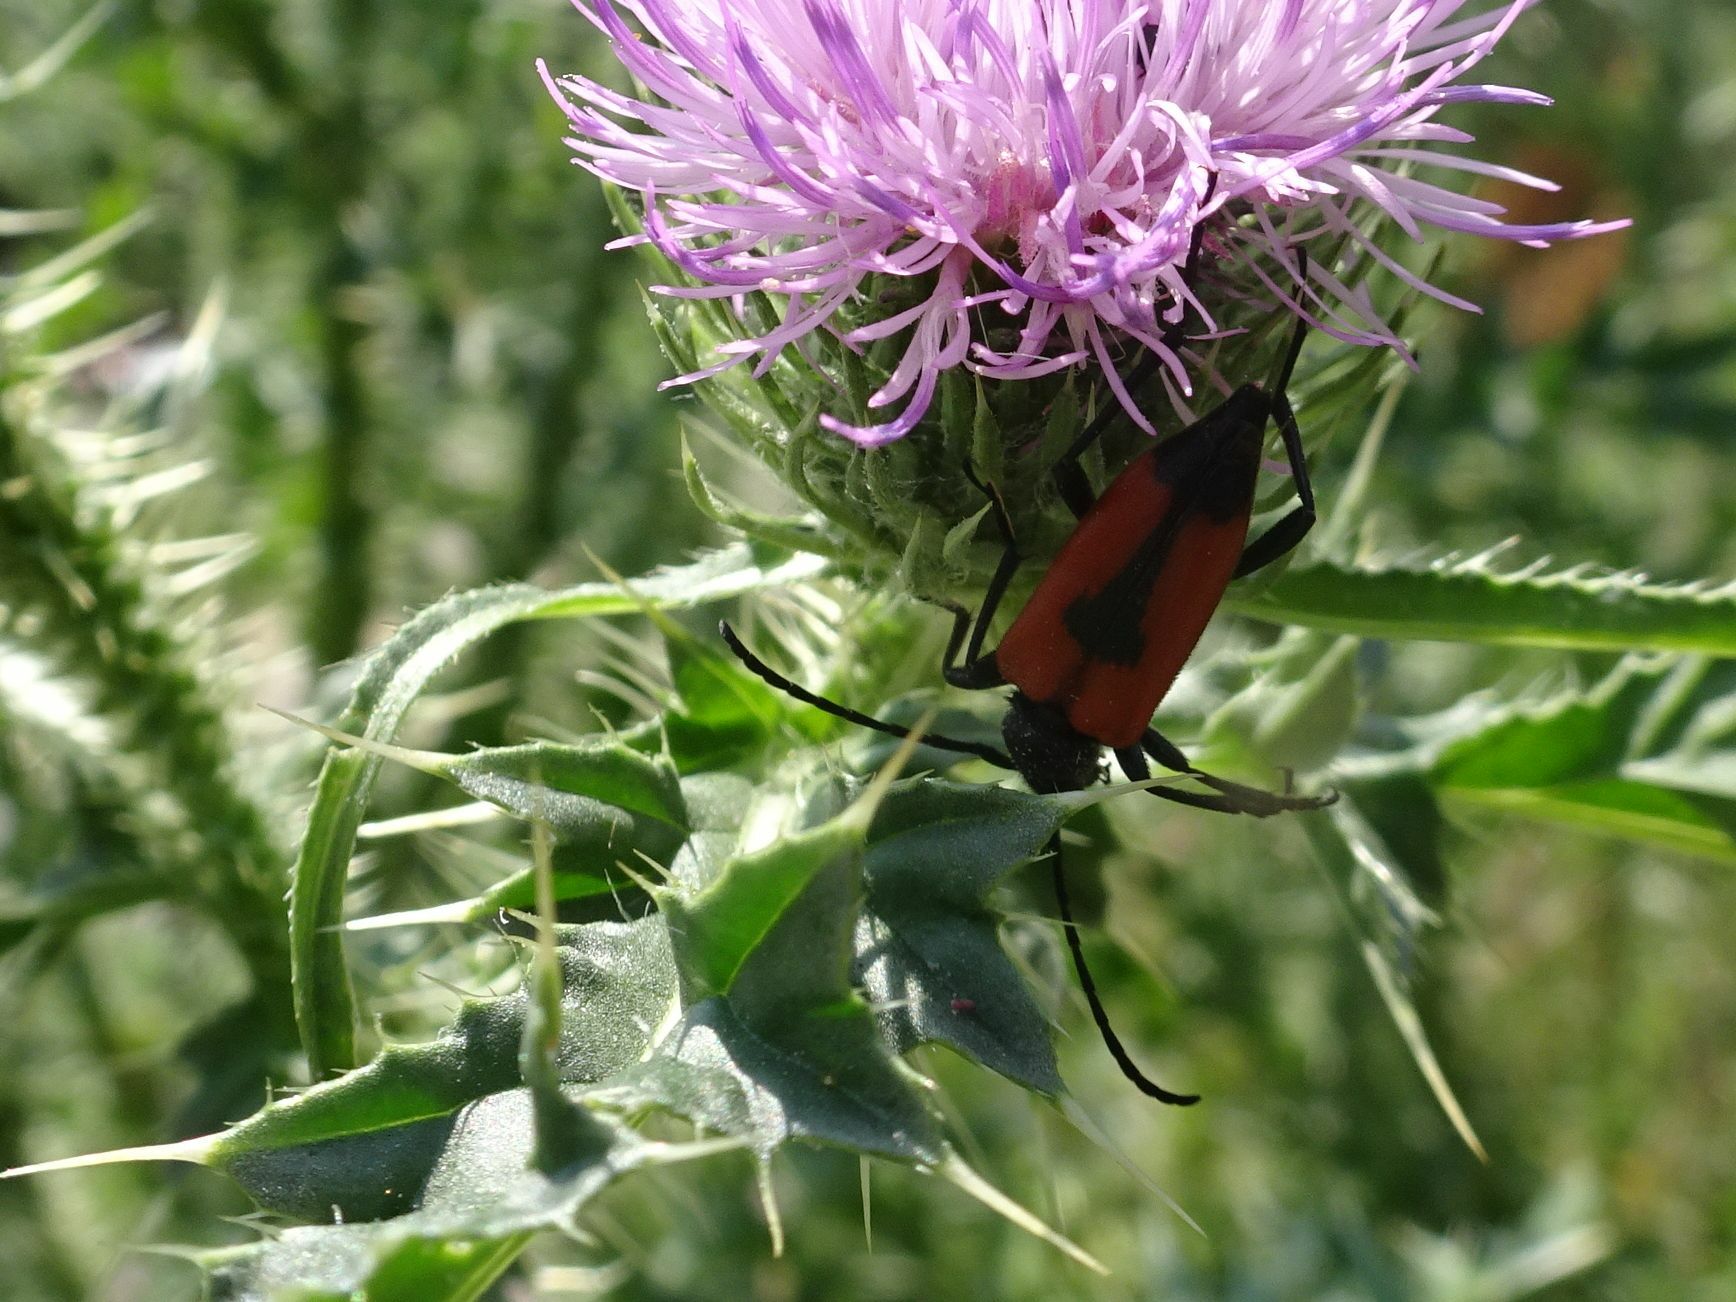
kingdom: Animalia
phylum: Arthropoda
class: Insecta
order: Coleoptera
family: Cerambycidae
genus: Stictoleptura
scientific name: Stictoleptura cordigera
